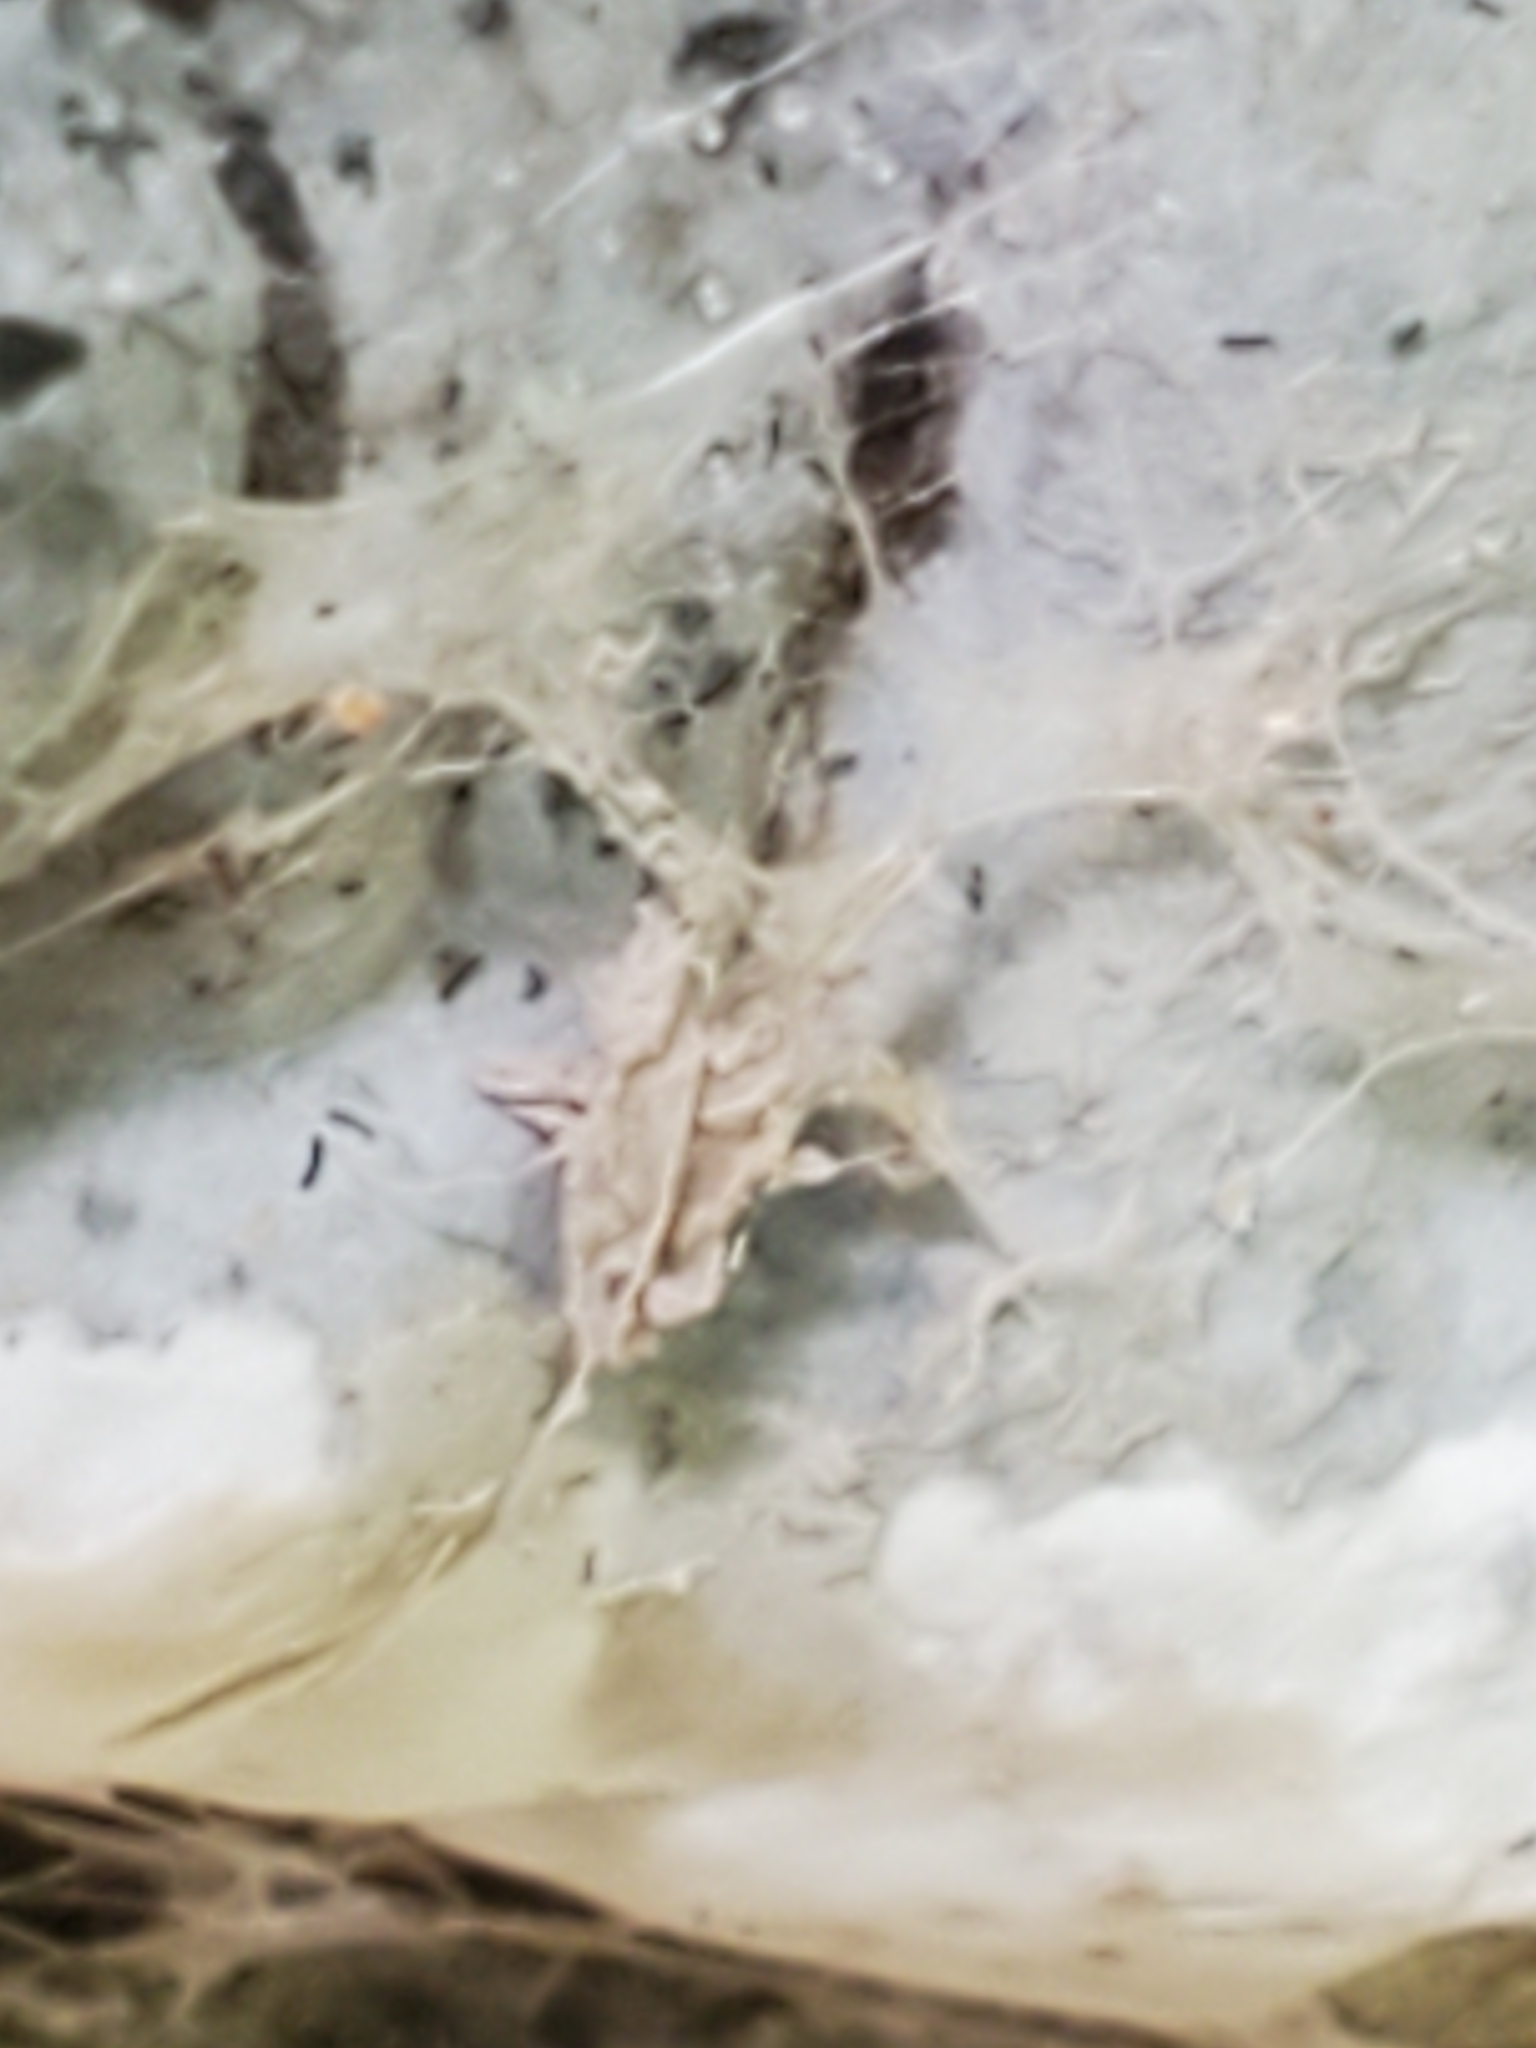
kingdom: Fungi
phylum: Ascomycota
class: Sordariomycetes
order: Xylariales
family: Xylariaceae
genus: Kretzschmaria
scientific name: Kretzschmaria deusta
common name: Brittle cinder
